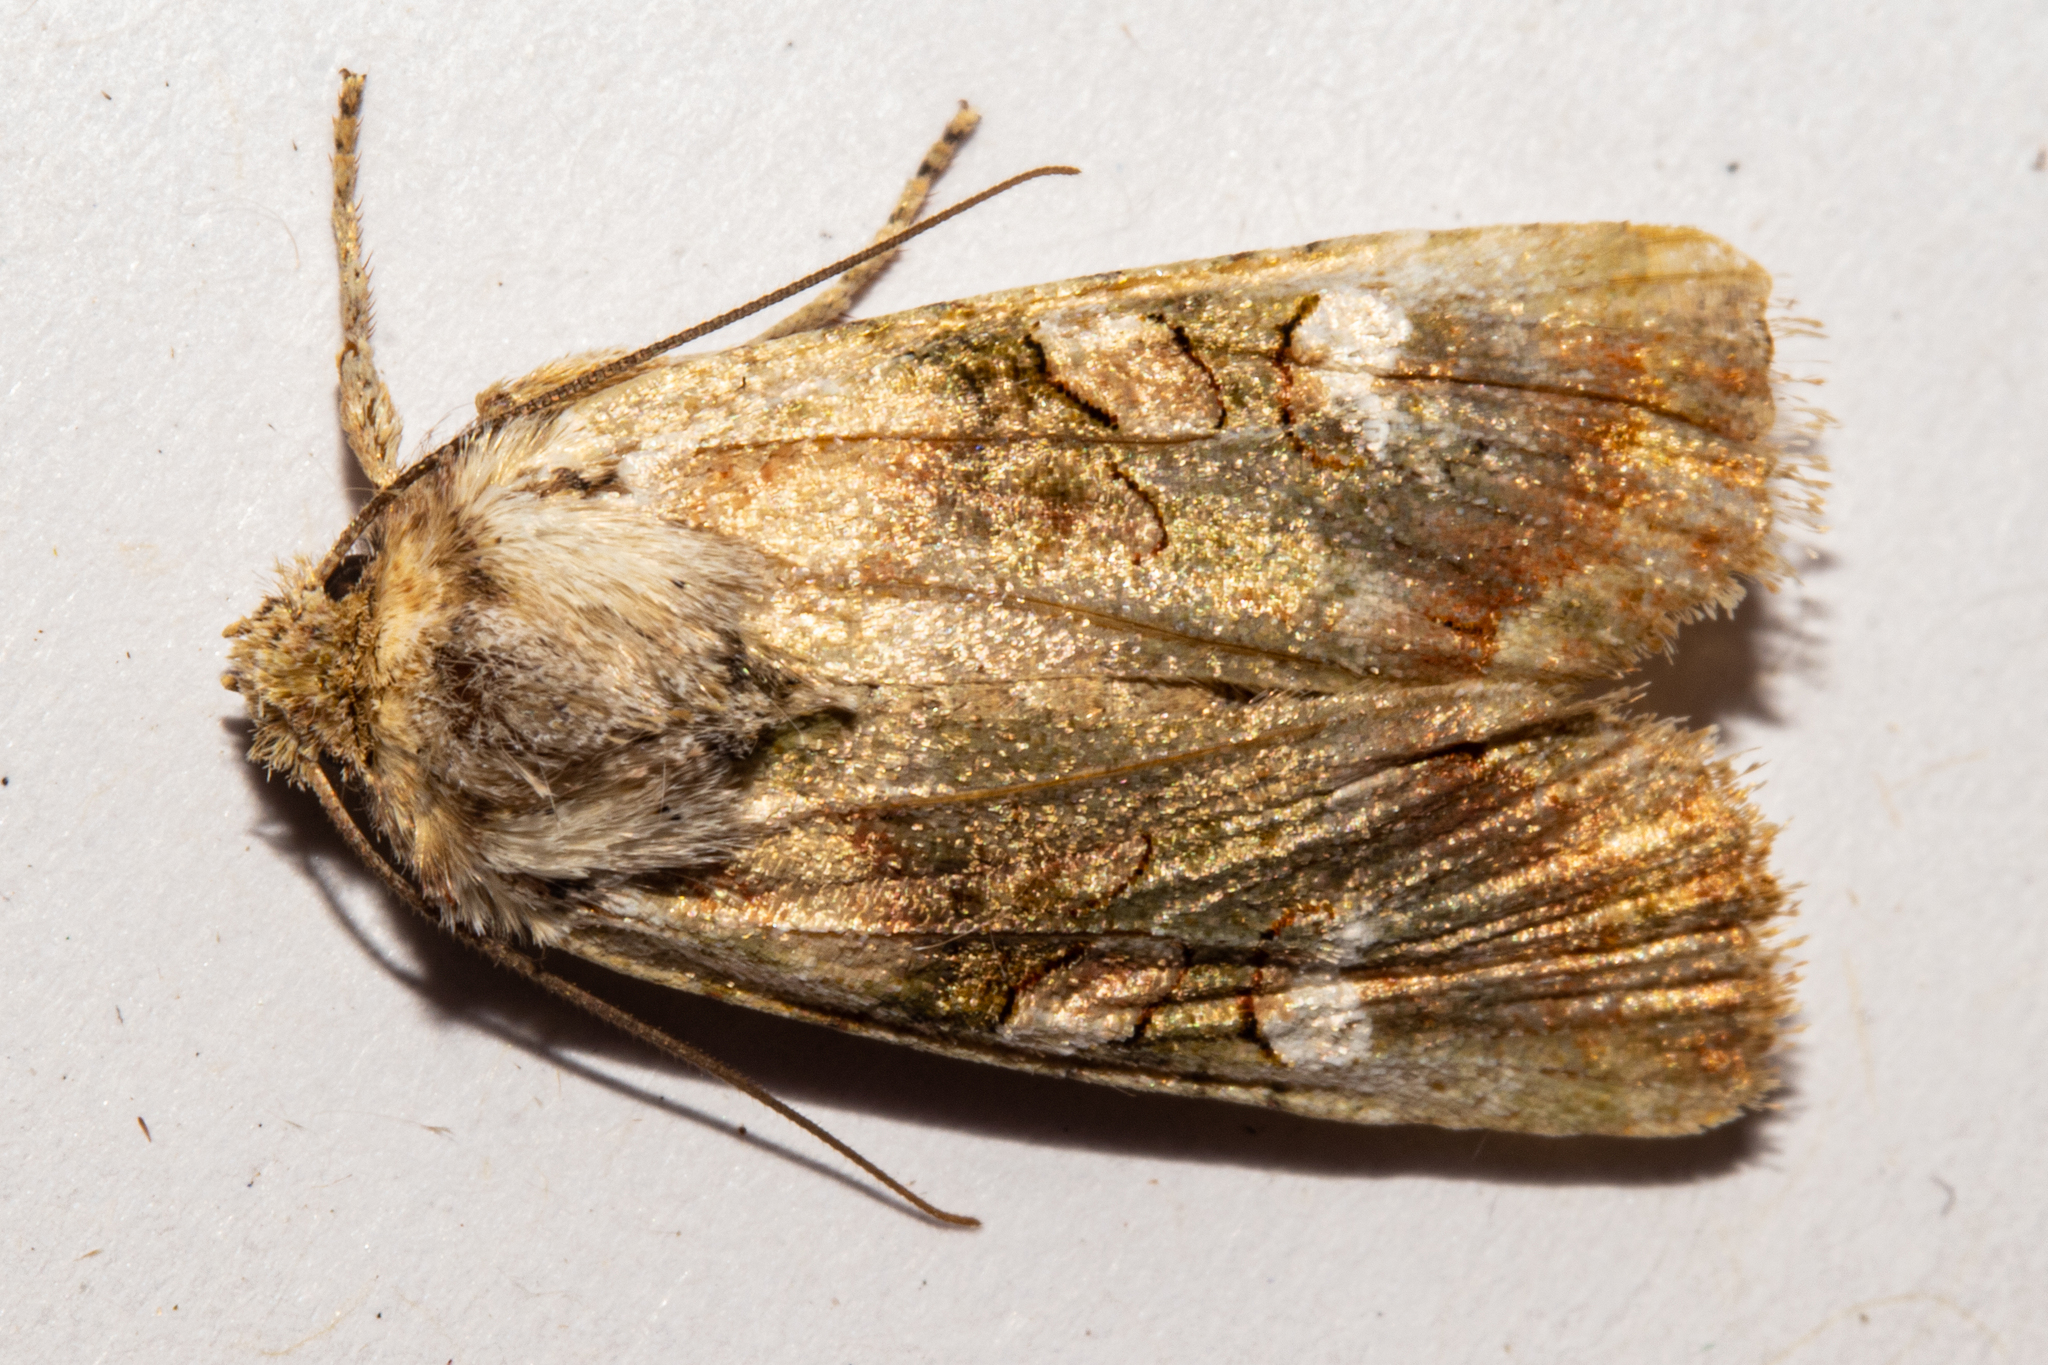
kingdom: Animalia
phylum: Arthropoda
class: Insecta
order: Lepidoptera
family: Noctuidae
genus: Meterana
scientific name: Meterana levis
